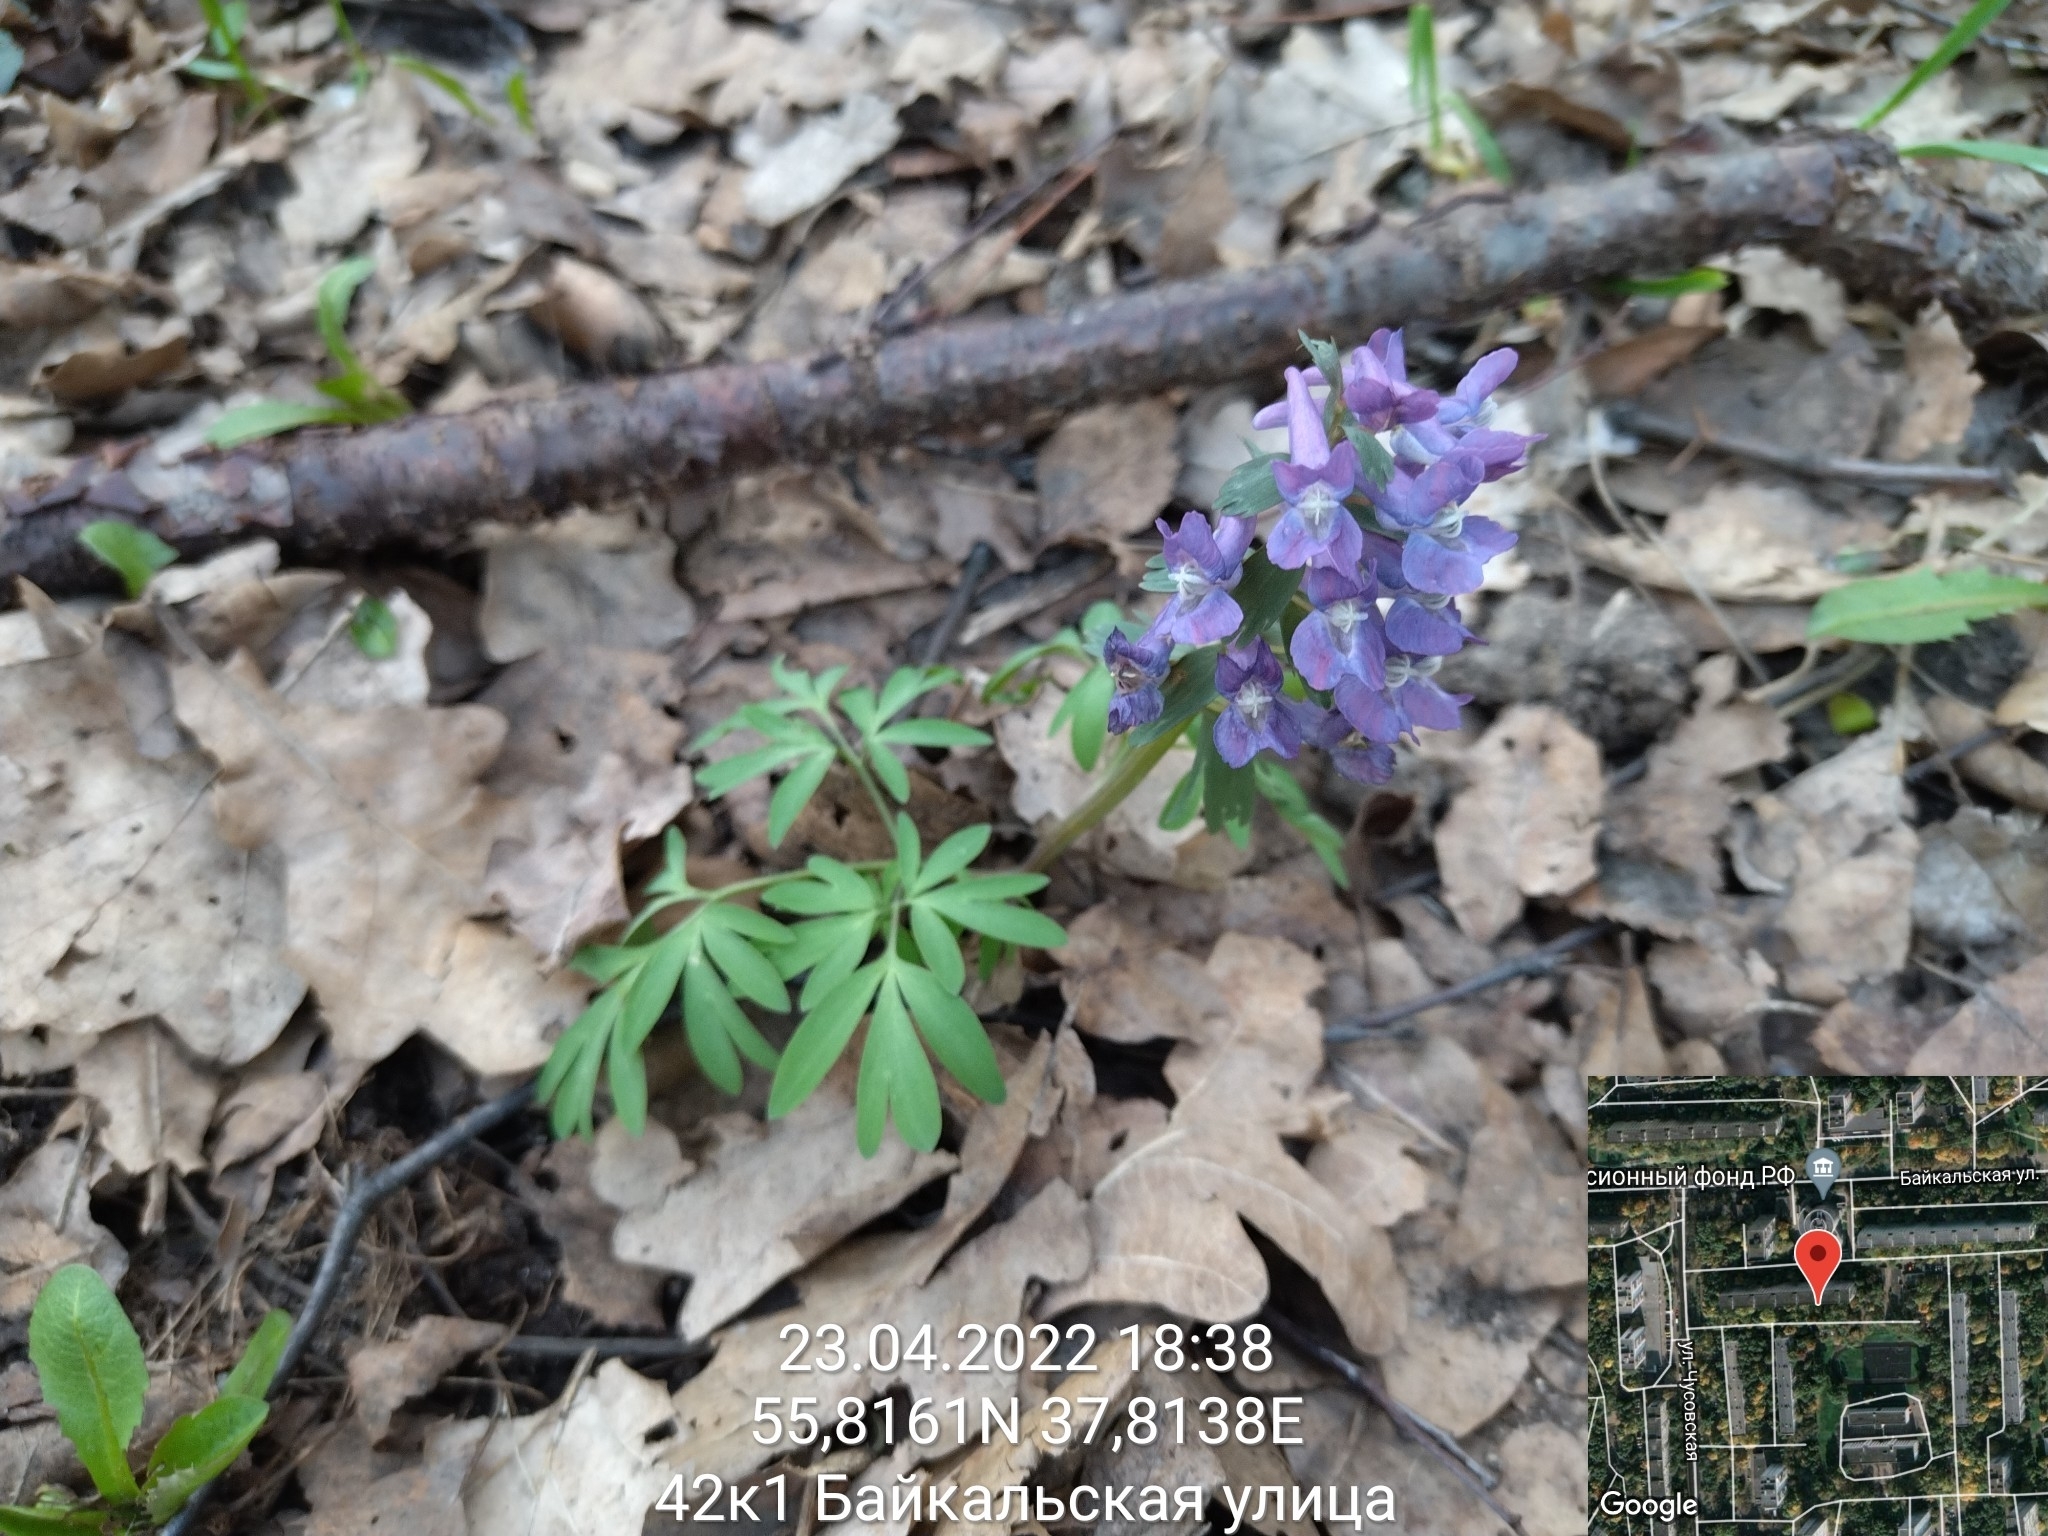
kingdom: Plantae
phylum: Tracheophyta
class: Magnoliopsida
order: Ranunculales
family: Papaveraceae
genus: Corydalis
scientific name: Corydalis solida
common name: Bird-in-a-bush
